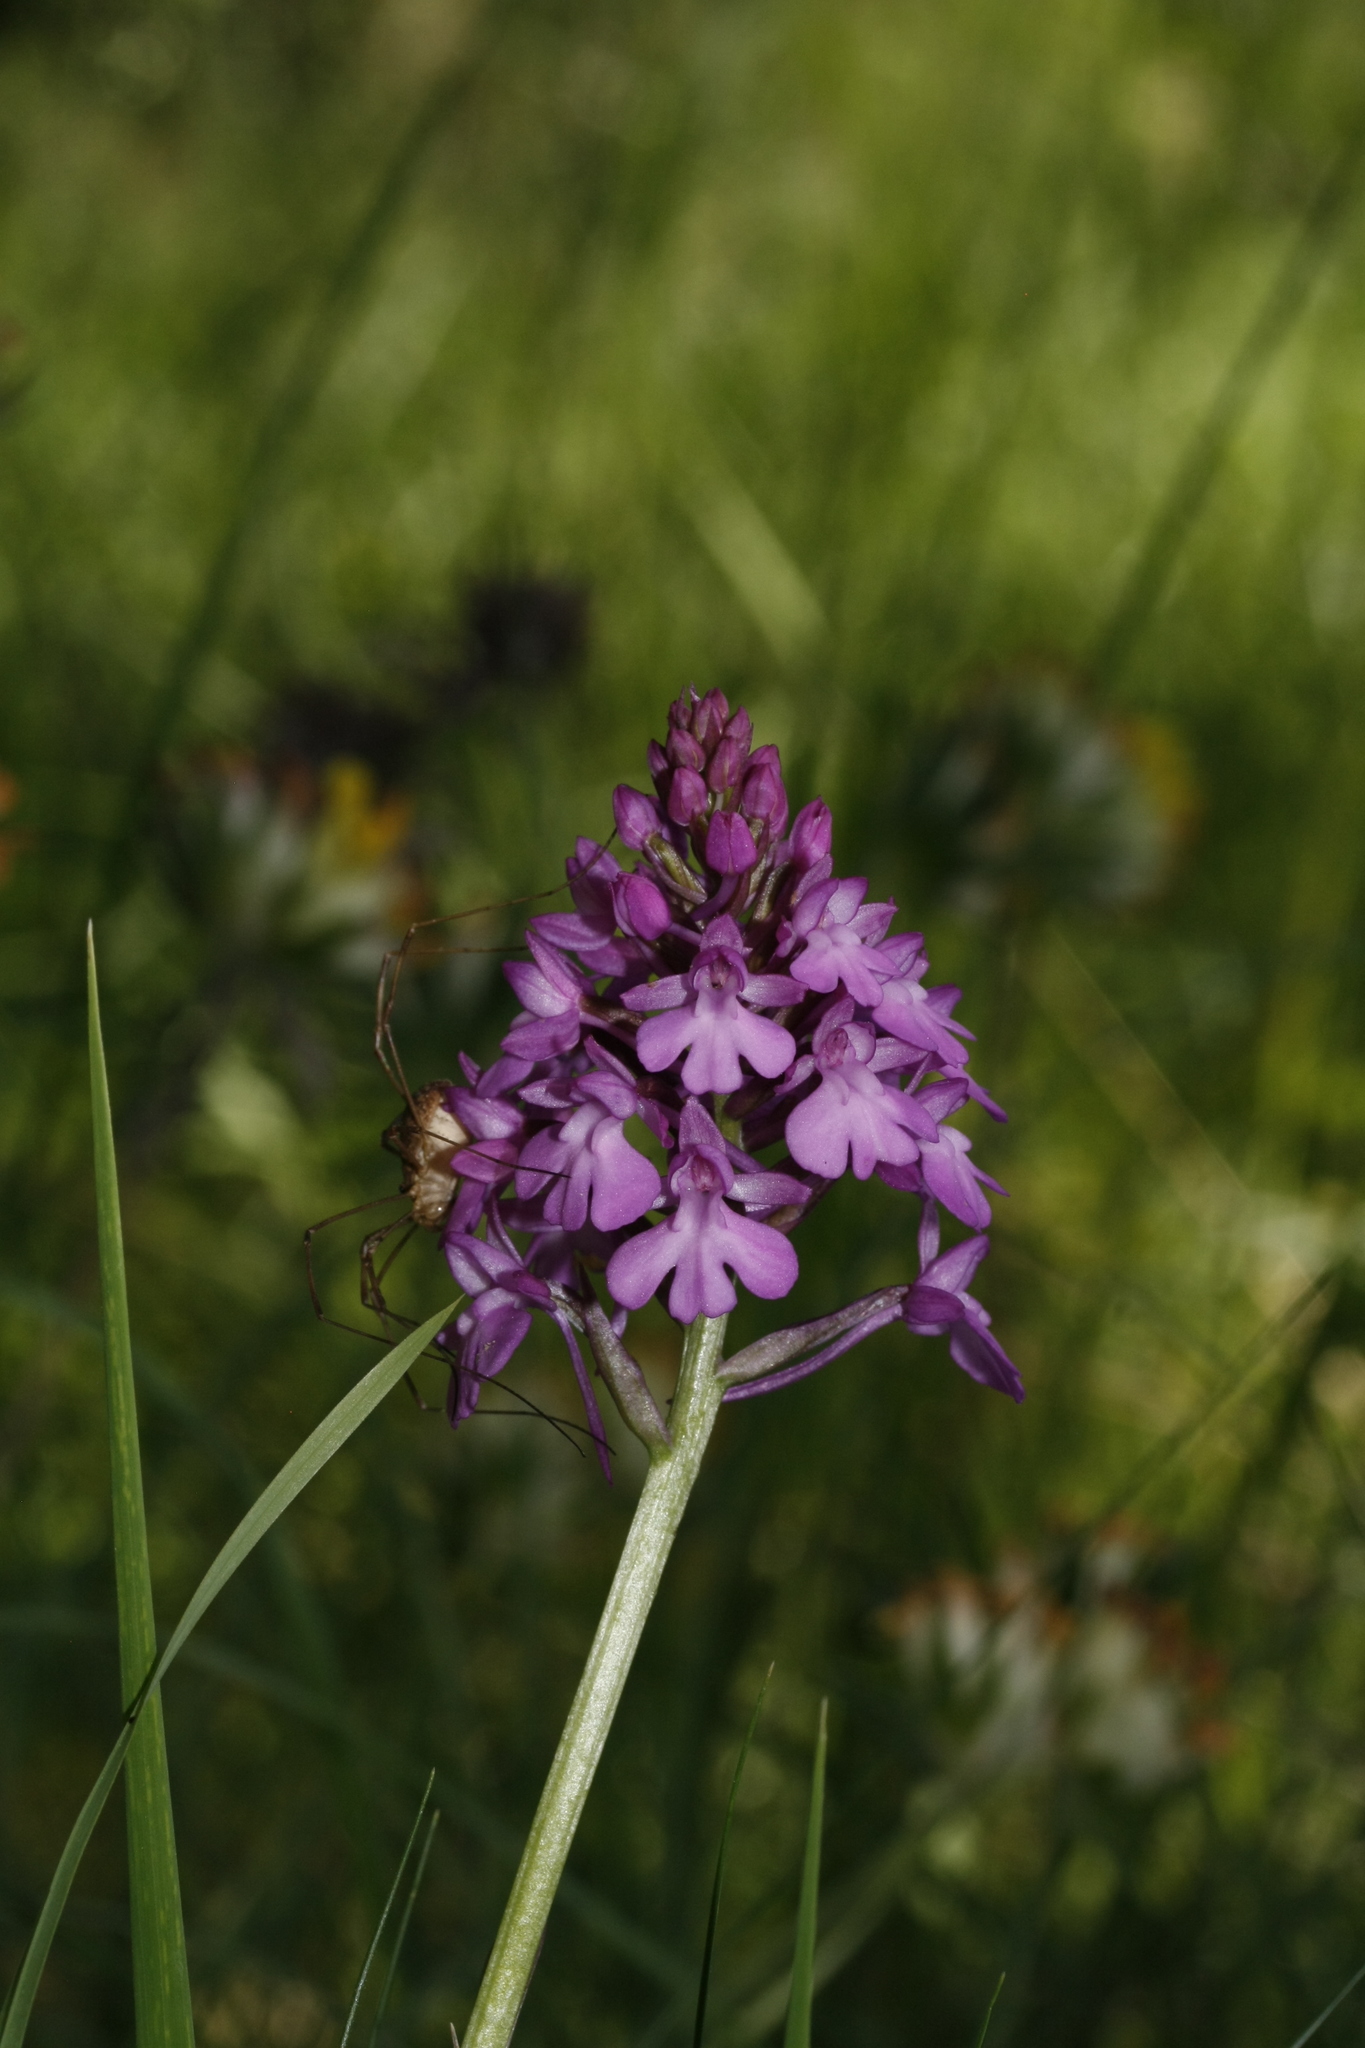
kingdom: Plantae
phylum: Tracheophyta
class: Liliopsida
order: Asparagales
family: Orchidaceae
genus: Anacamptis
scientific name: Anacamptis pyramidalis
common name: Pyramidal orchid
